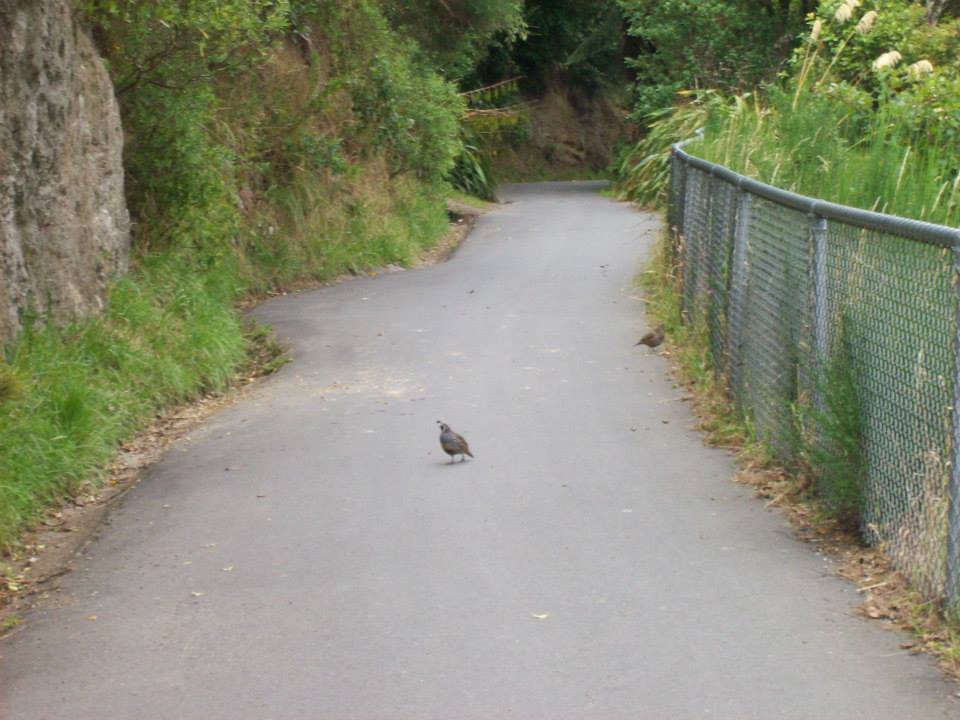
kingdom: Animalia
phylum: Chordata
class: Aves
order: Galliformes
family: Odontophoridae
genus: Callipepla
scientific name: Callipepla californica
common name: California quail
